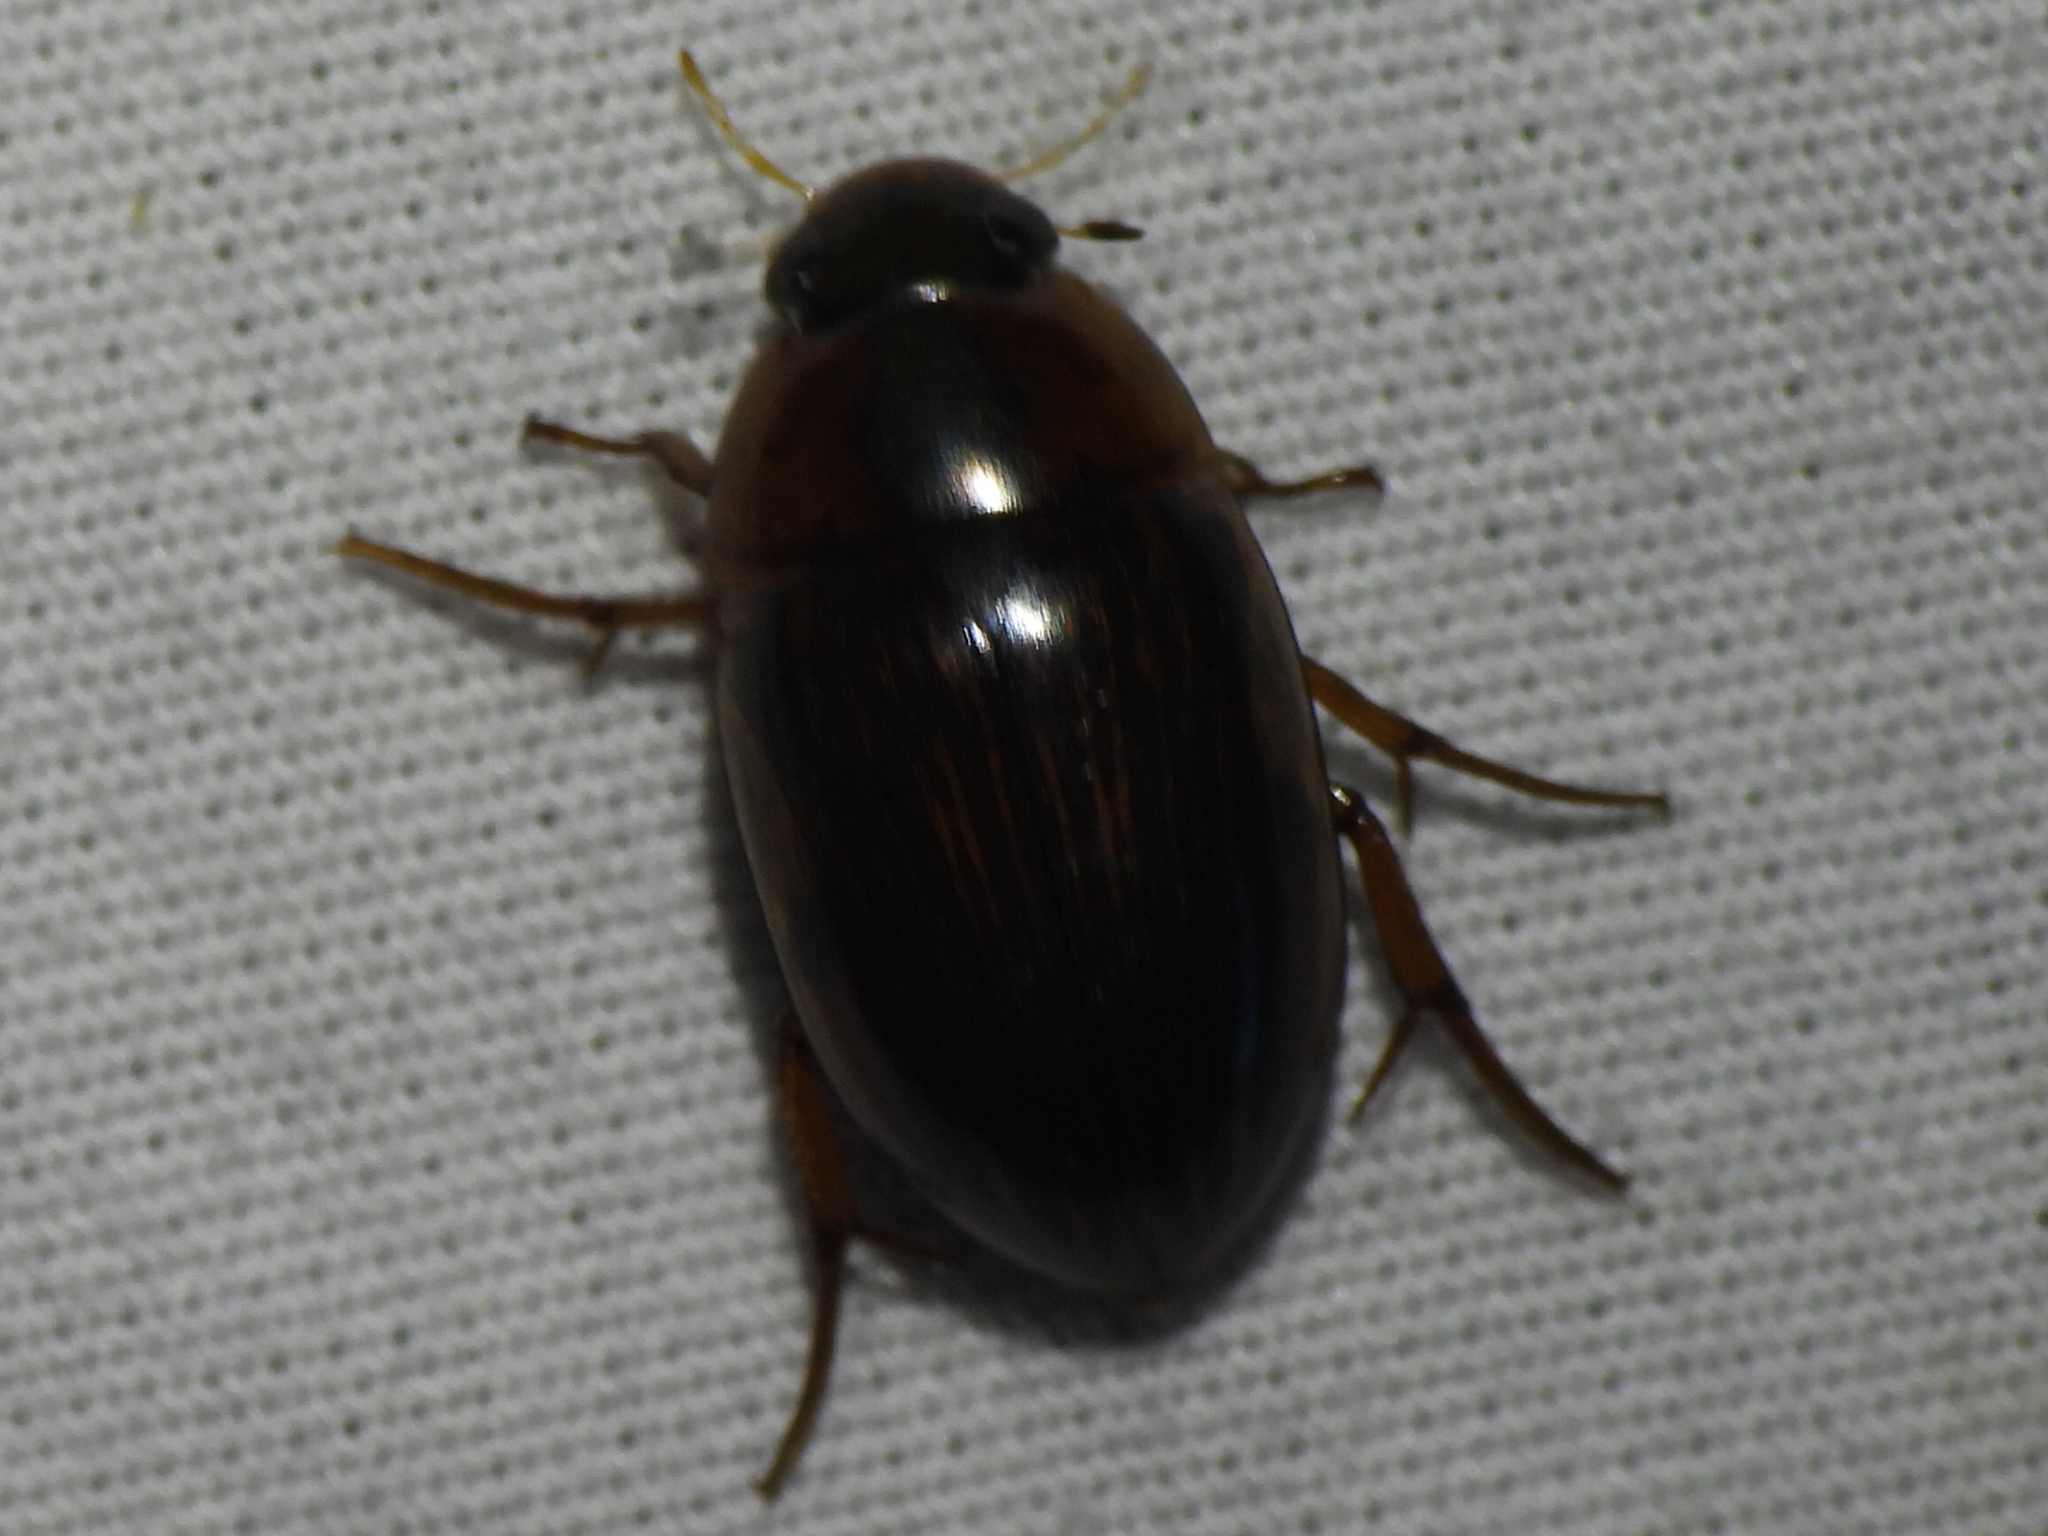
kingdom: Animalia
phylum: Arthropoda
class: Insecta
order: Coleoptera
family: Hydrophilidae
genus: Tropisternus
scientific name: Tropisternus collaris
